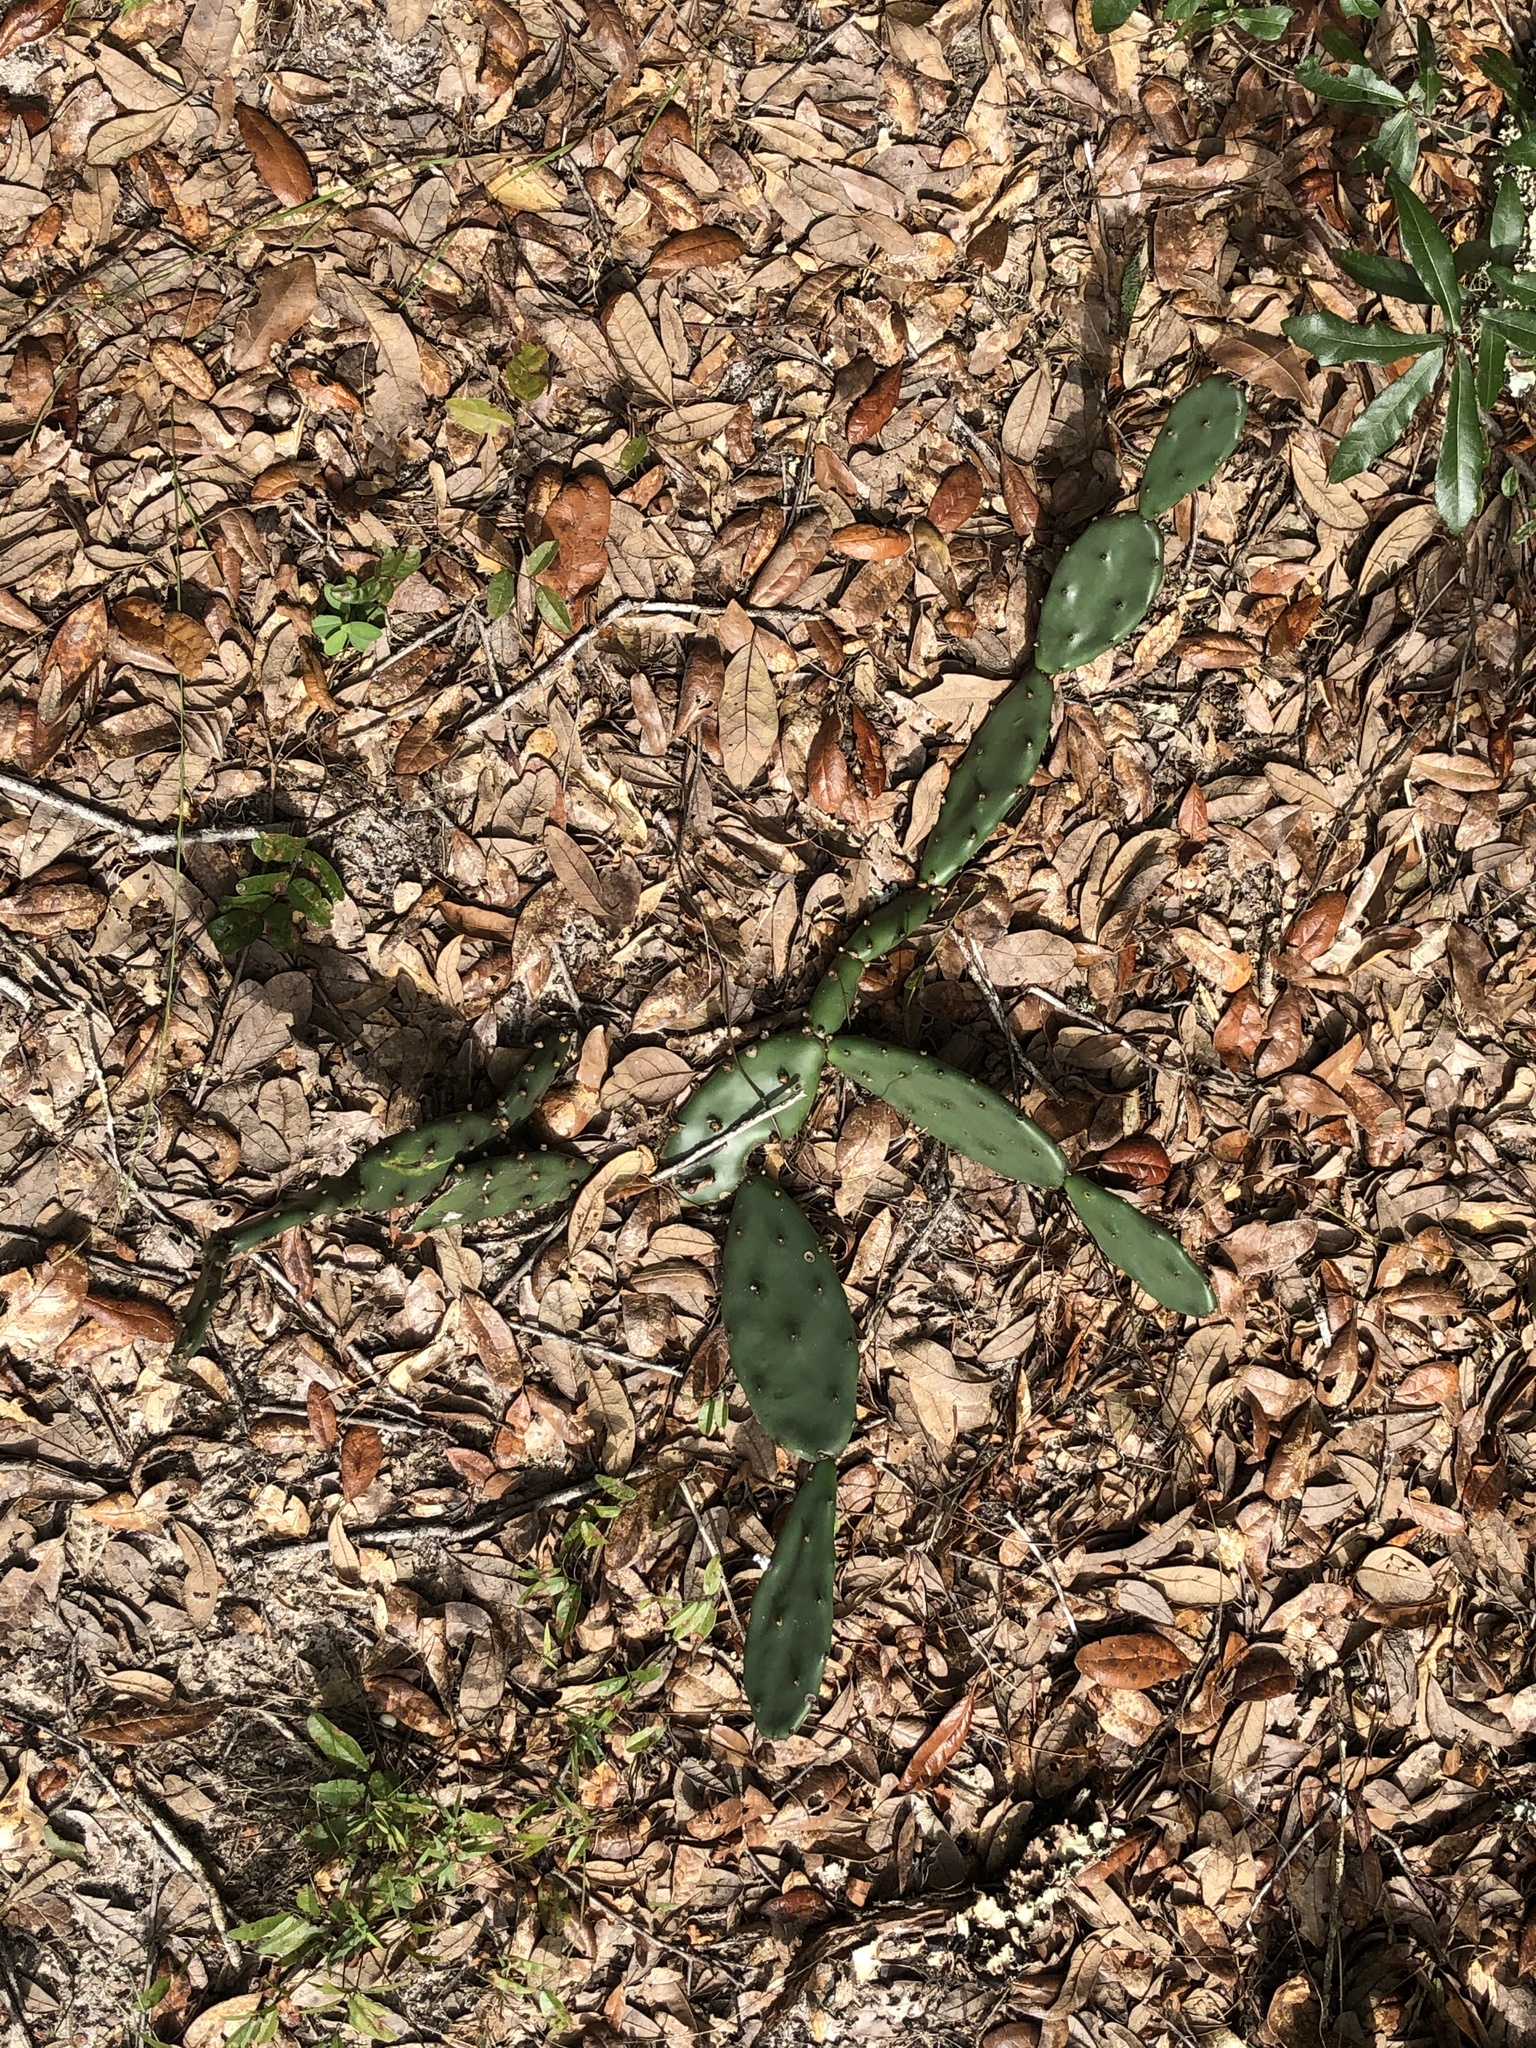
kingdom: Plantae
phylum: Tracheophyta
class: Magnoliopsida
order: Caryophyllales
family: Cactaceae
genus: Opuntia
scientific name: Opuntia mesacantha
